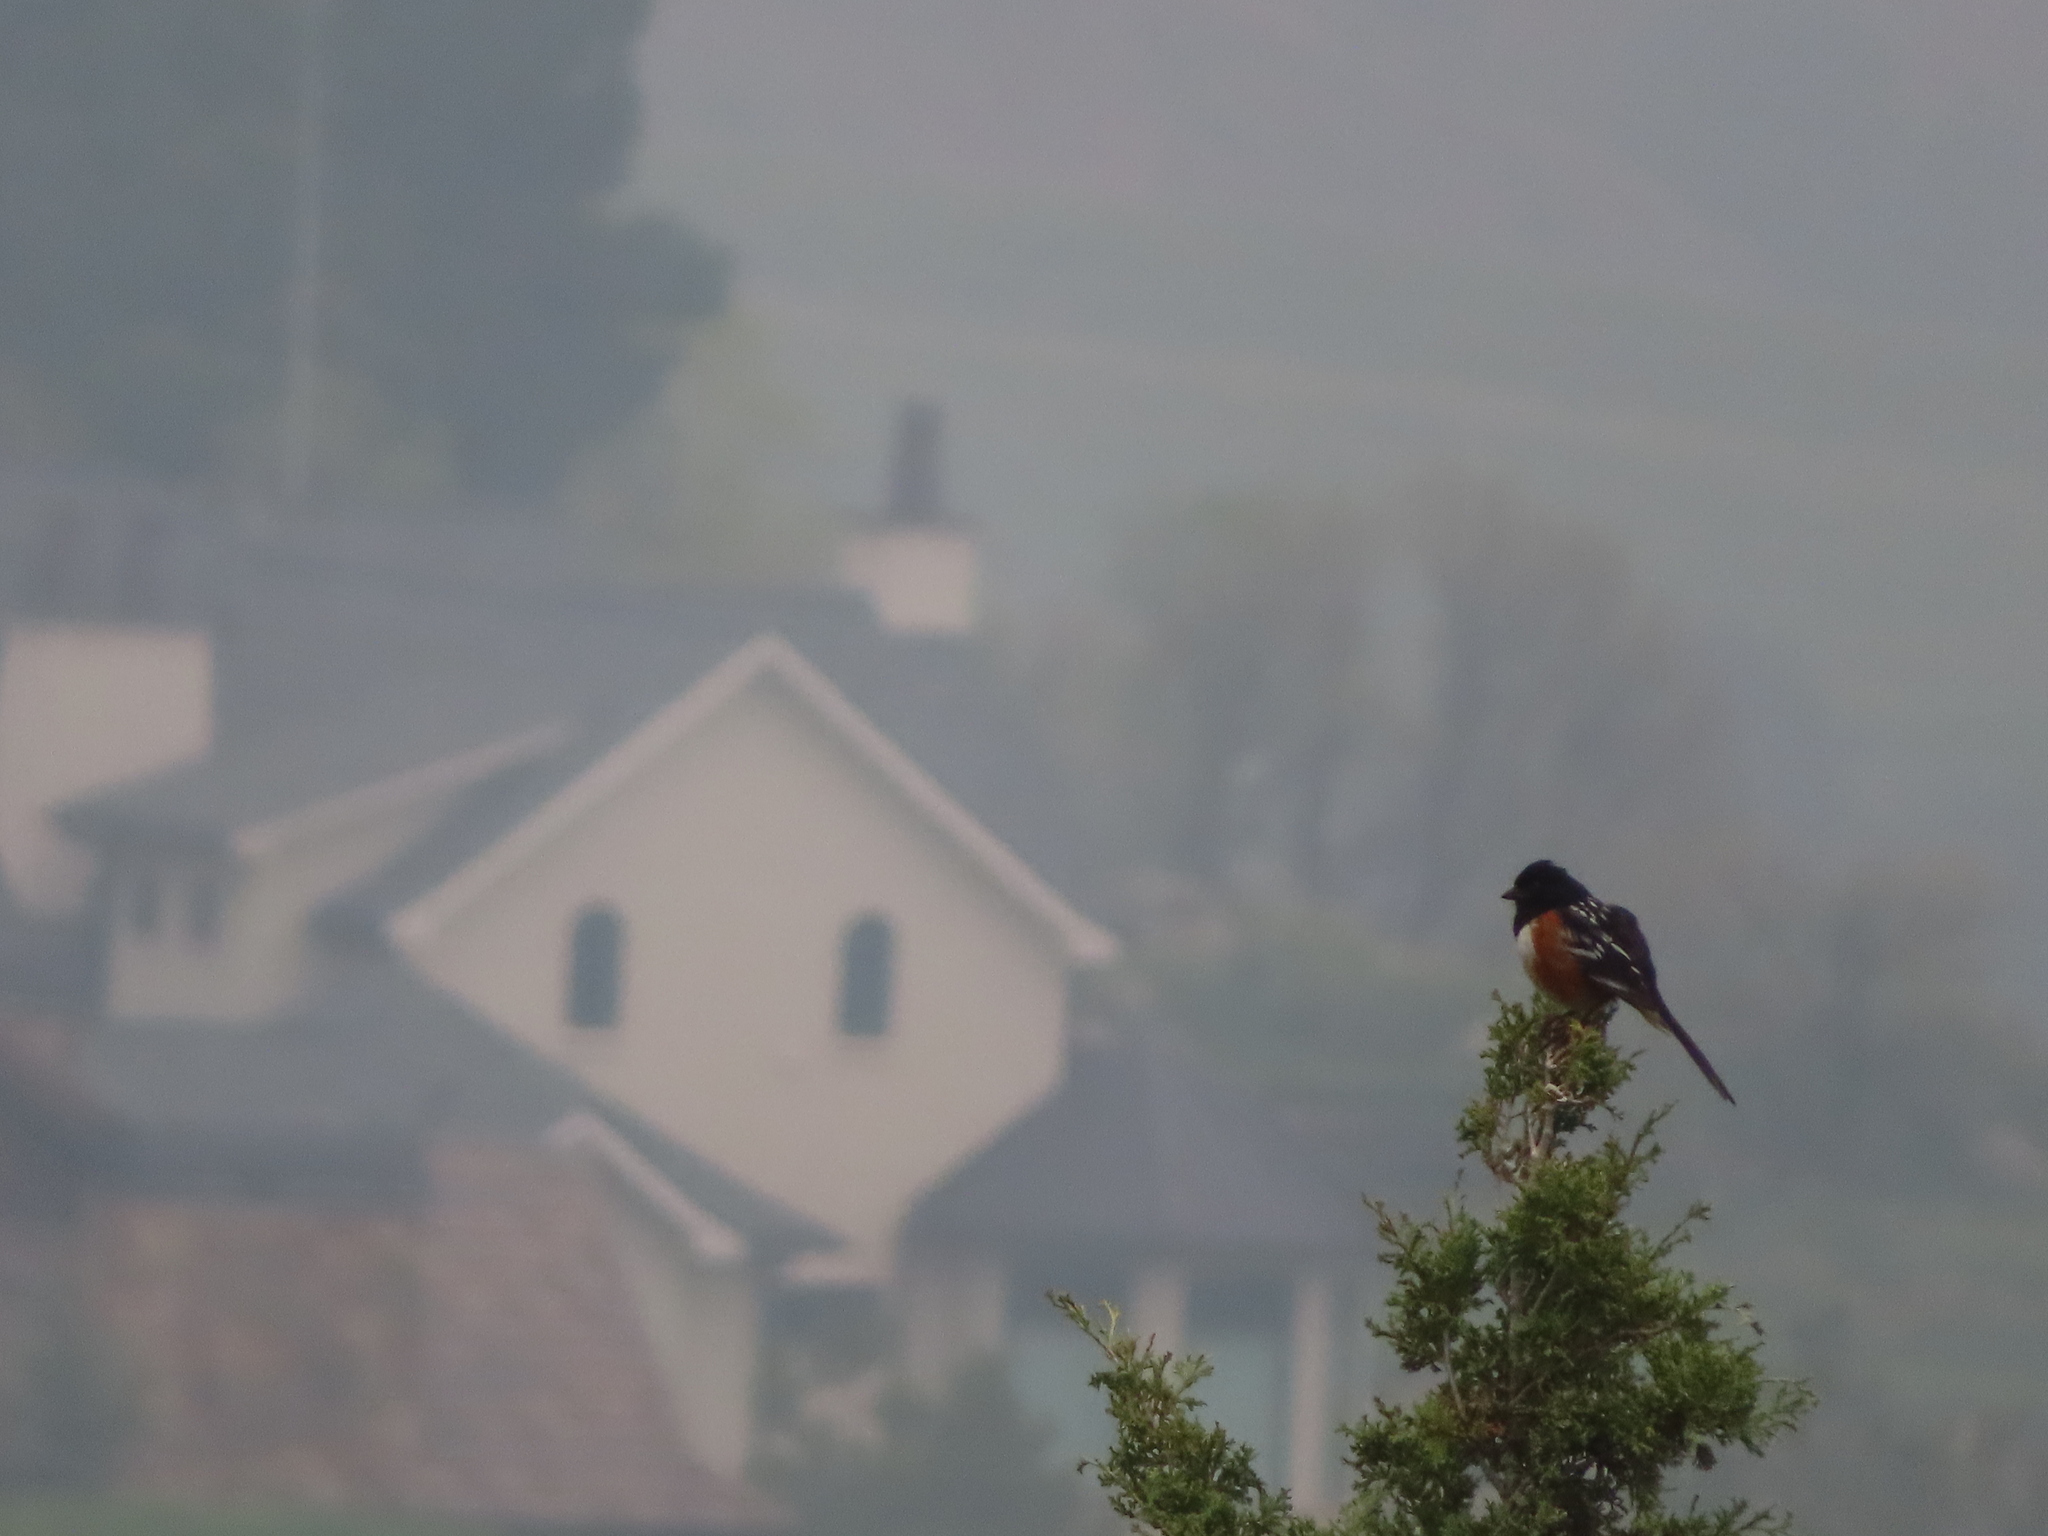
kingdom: Animalia
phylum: Chordata
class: Aves
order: Passeriformes
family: Passerellidae
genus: Pipilo
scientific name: Pipilo maculatus
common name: Spotted towhee
